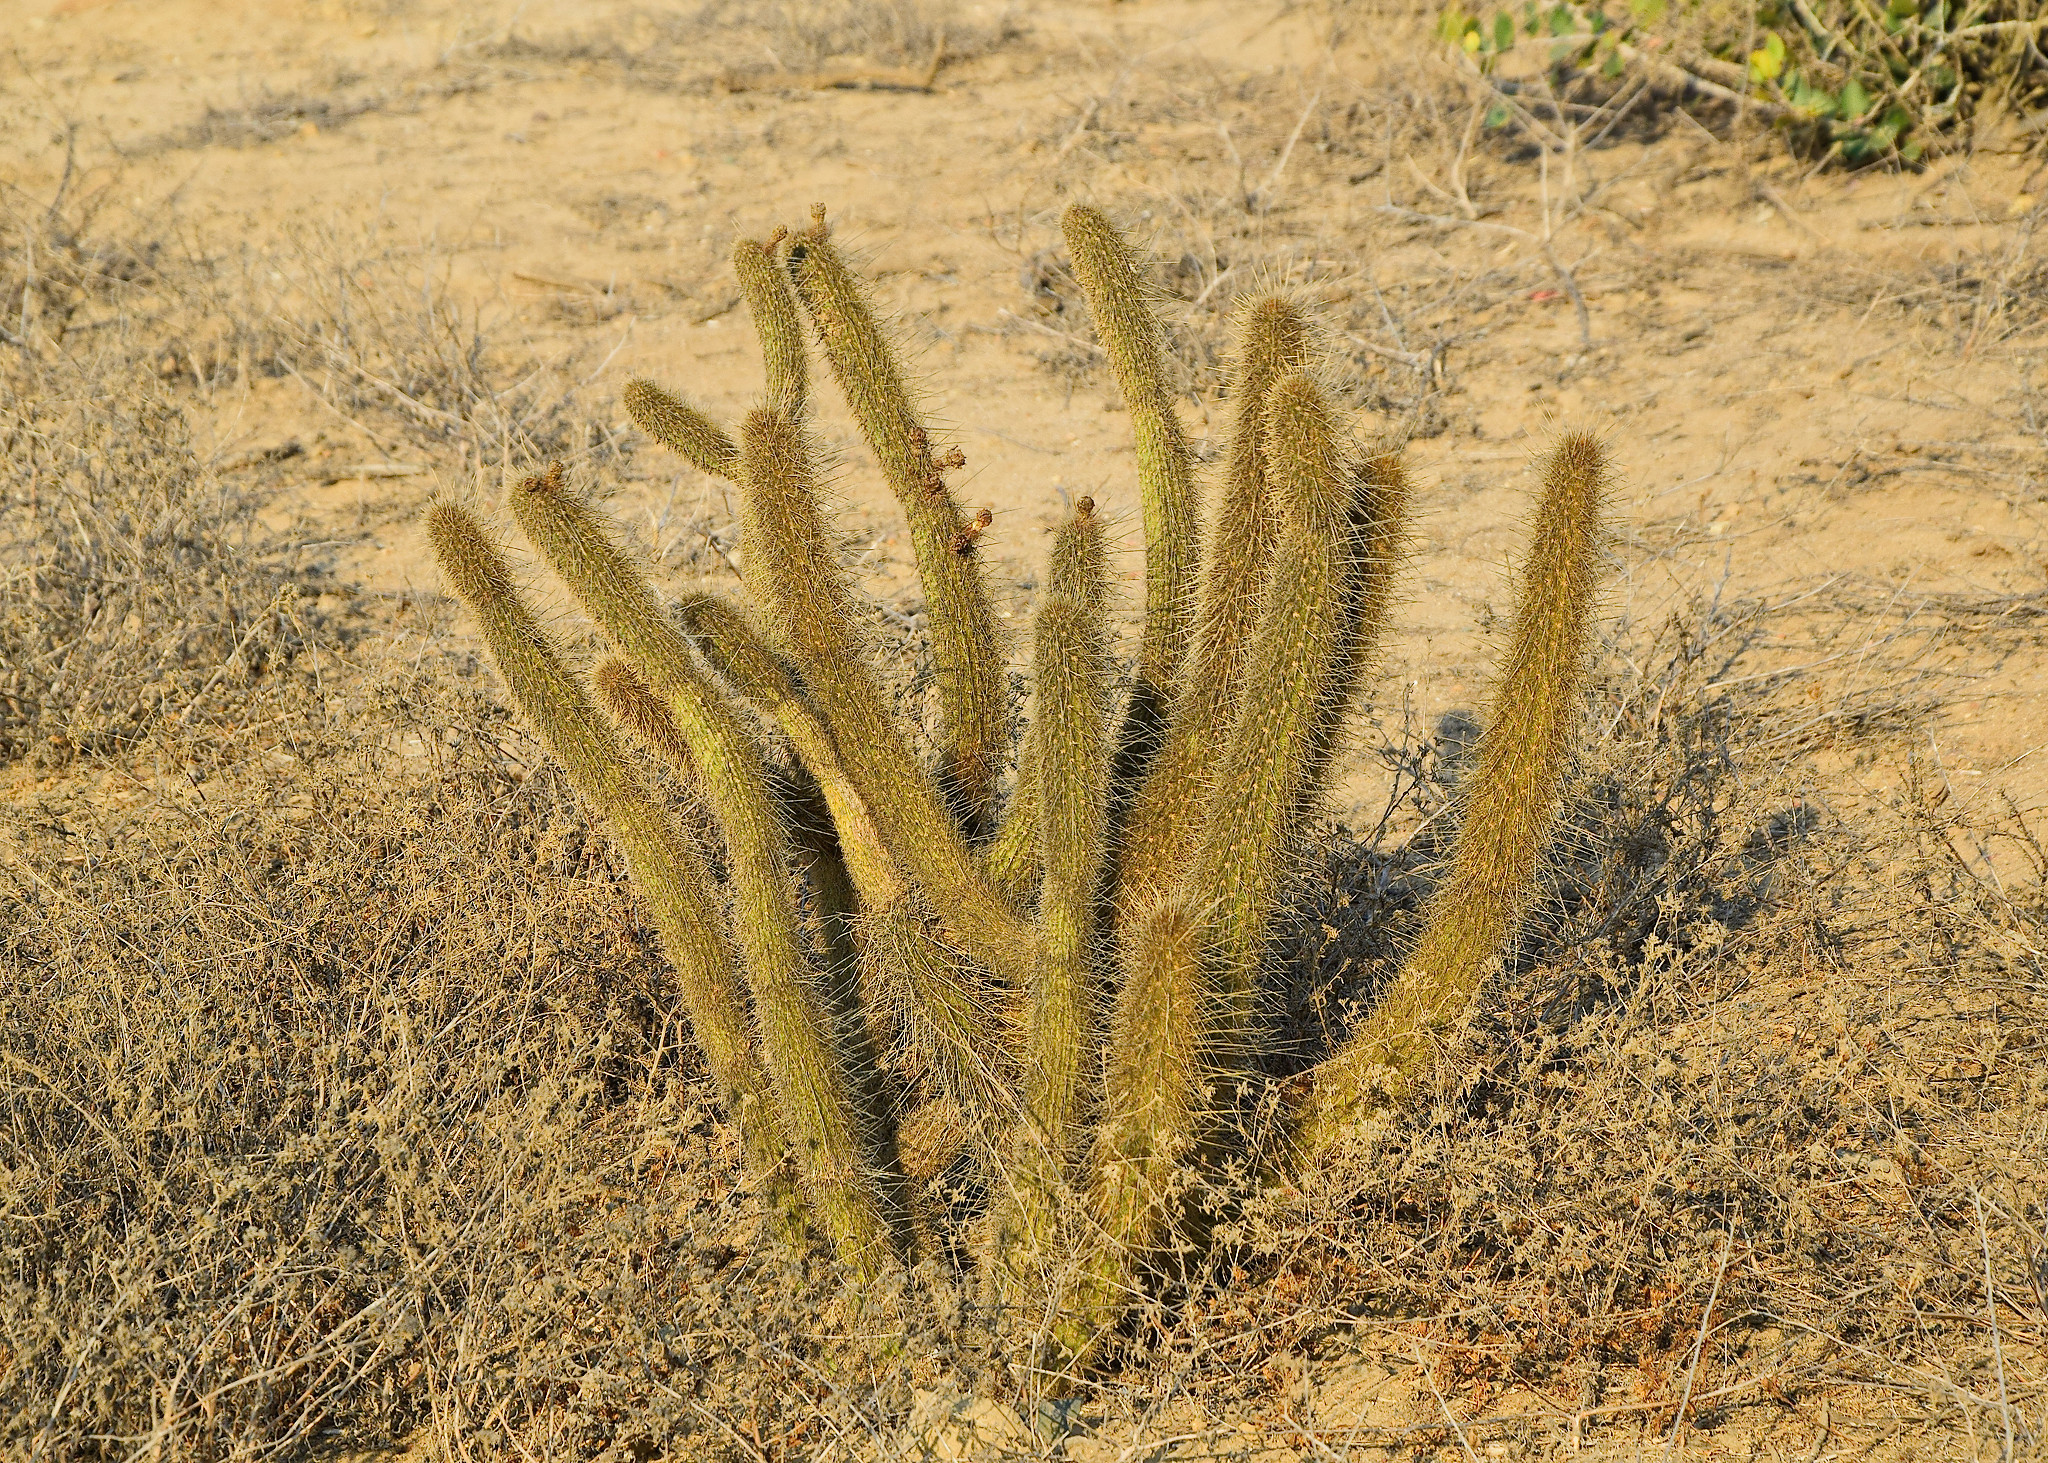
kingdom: Plantae
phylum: Tracheophyta
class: Magnoliopsida
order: Caryophyllales
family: Cactaceae
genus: Bergerocactus
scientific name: Bergerocactus emoryi
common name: Golden snakecactus
